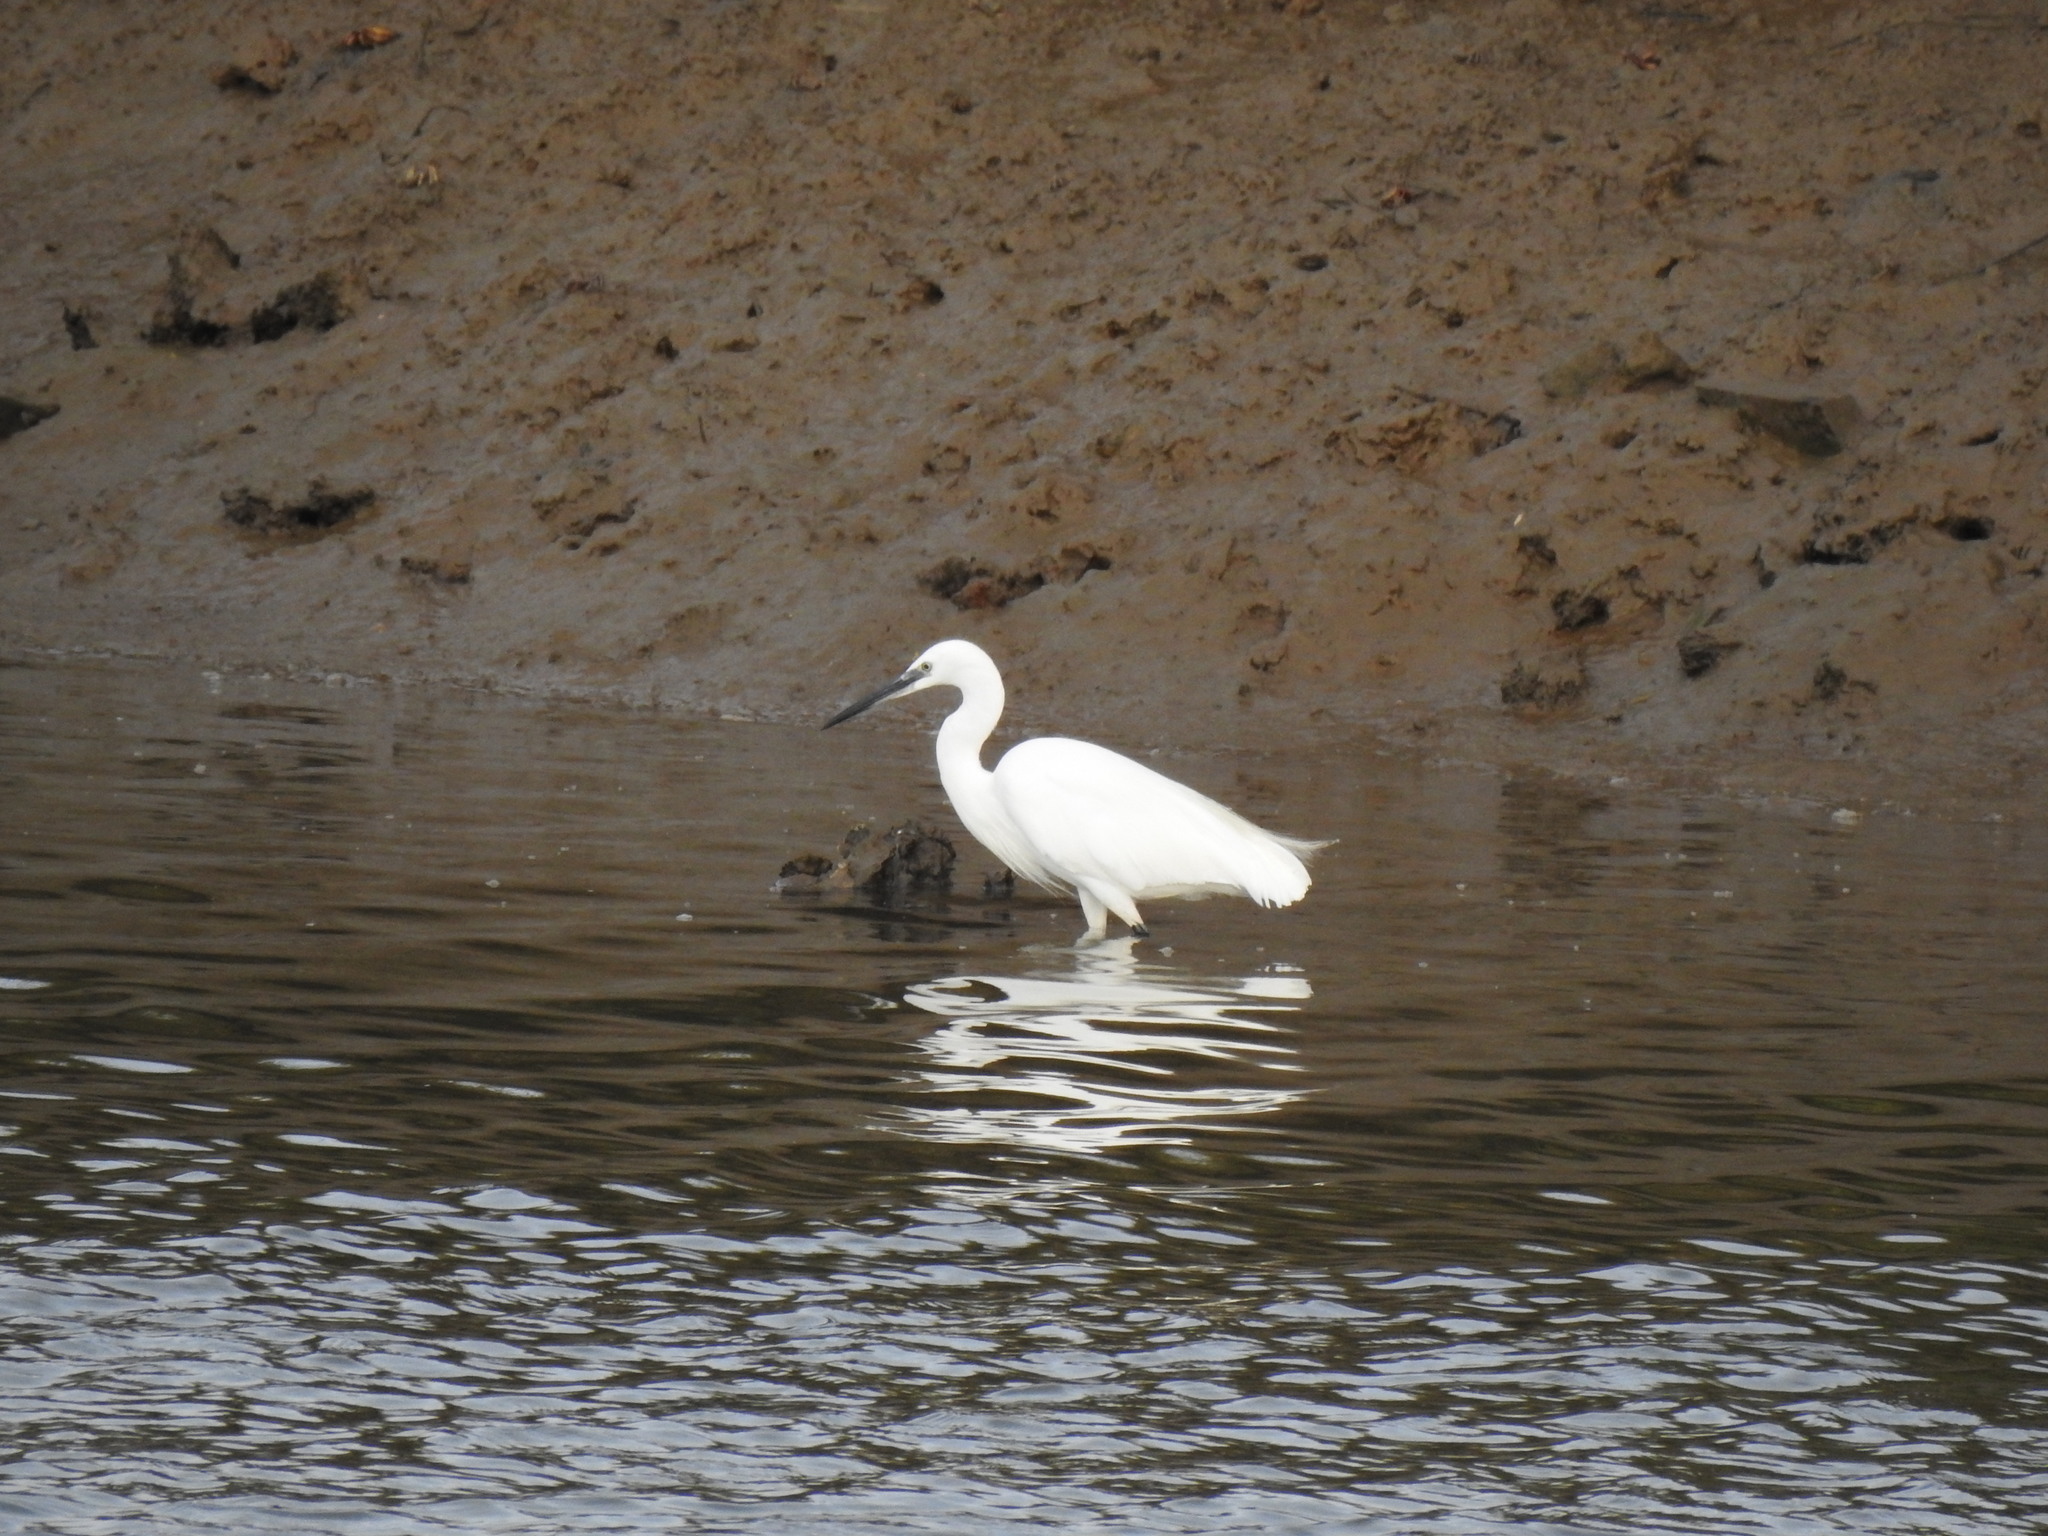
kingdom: Animalia
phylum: Chordata
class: Aves
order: Pelecaniformes
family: Ardeidae
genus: Egretta
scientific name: Egretta garzetta
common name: Little egret
